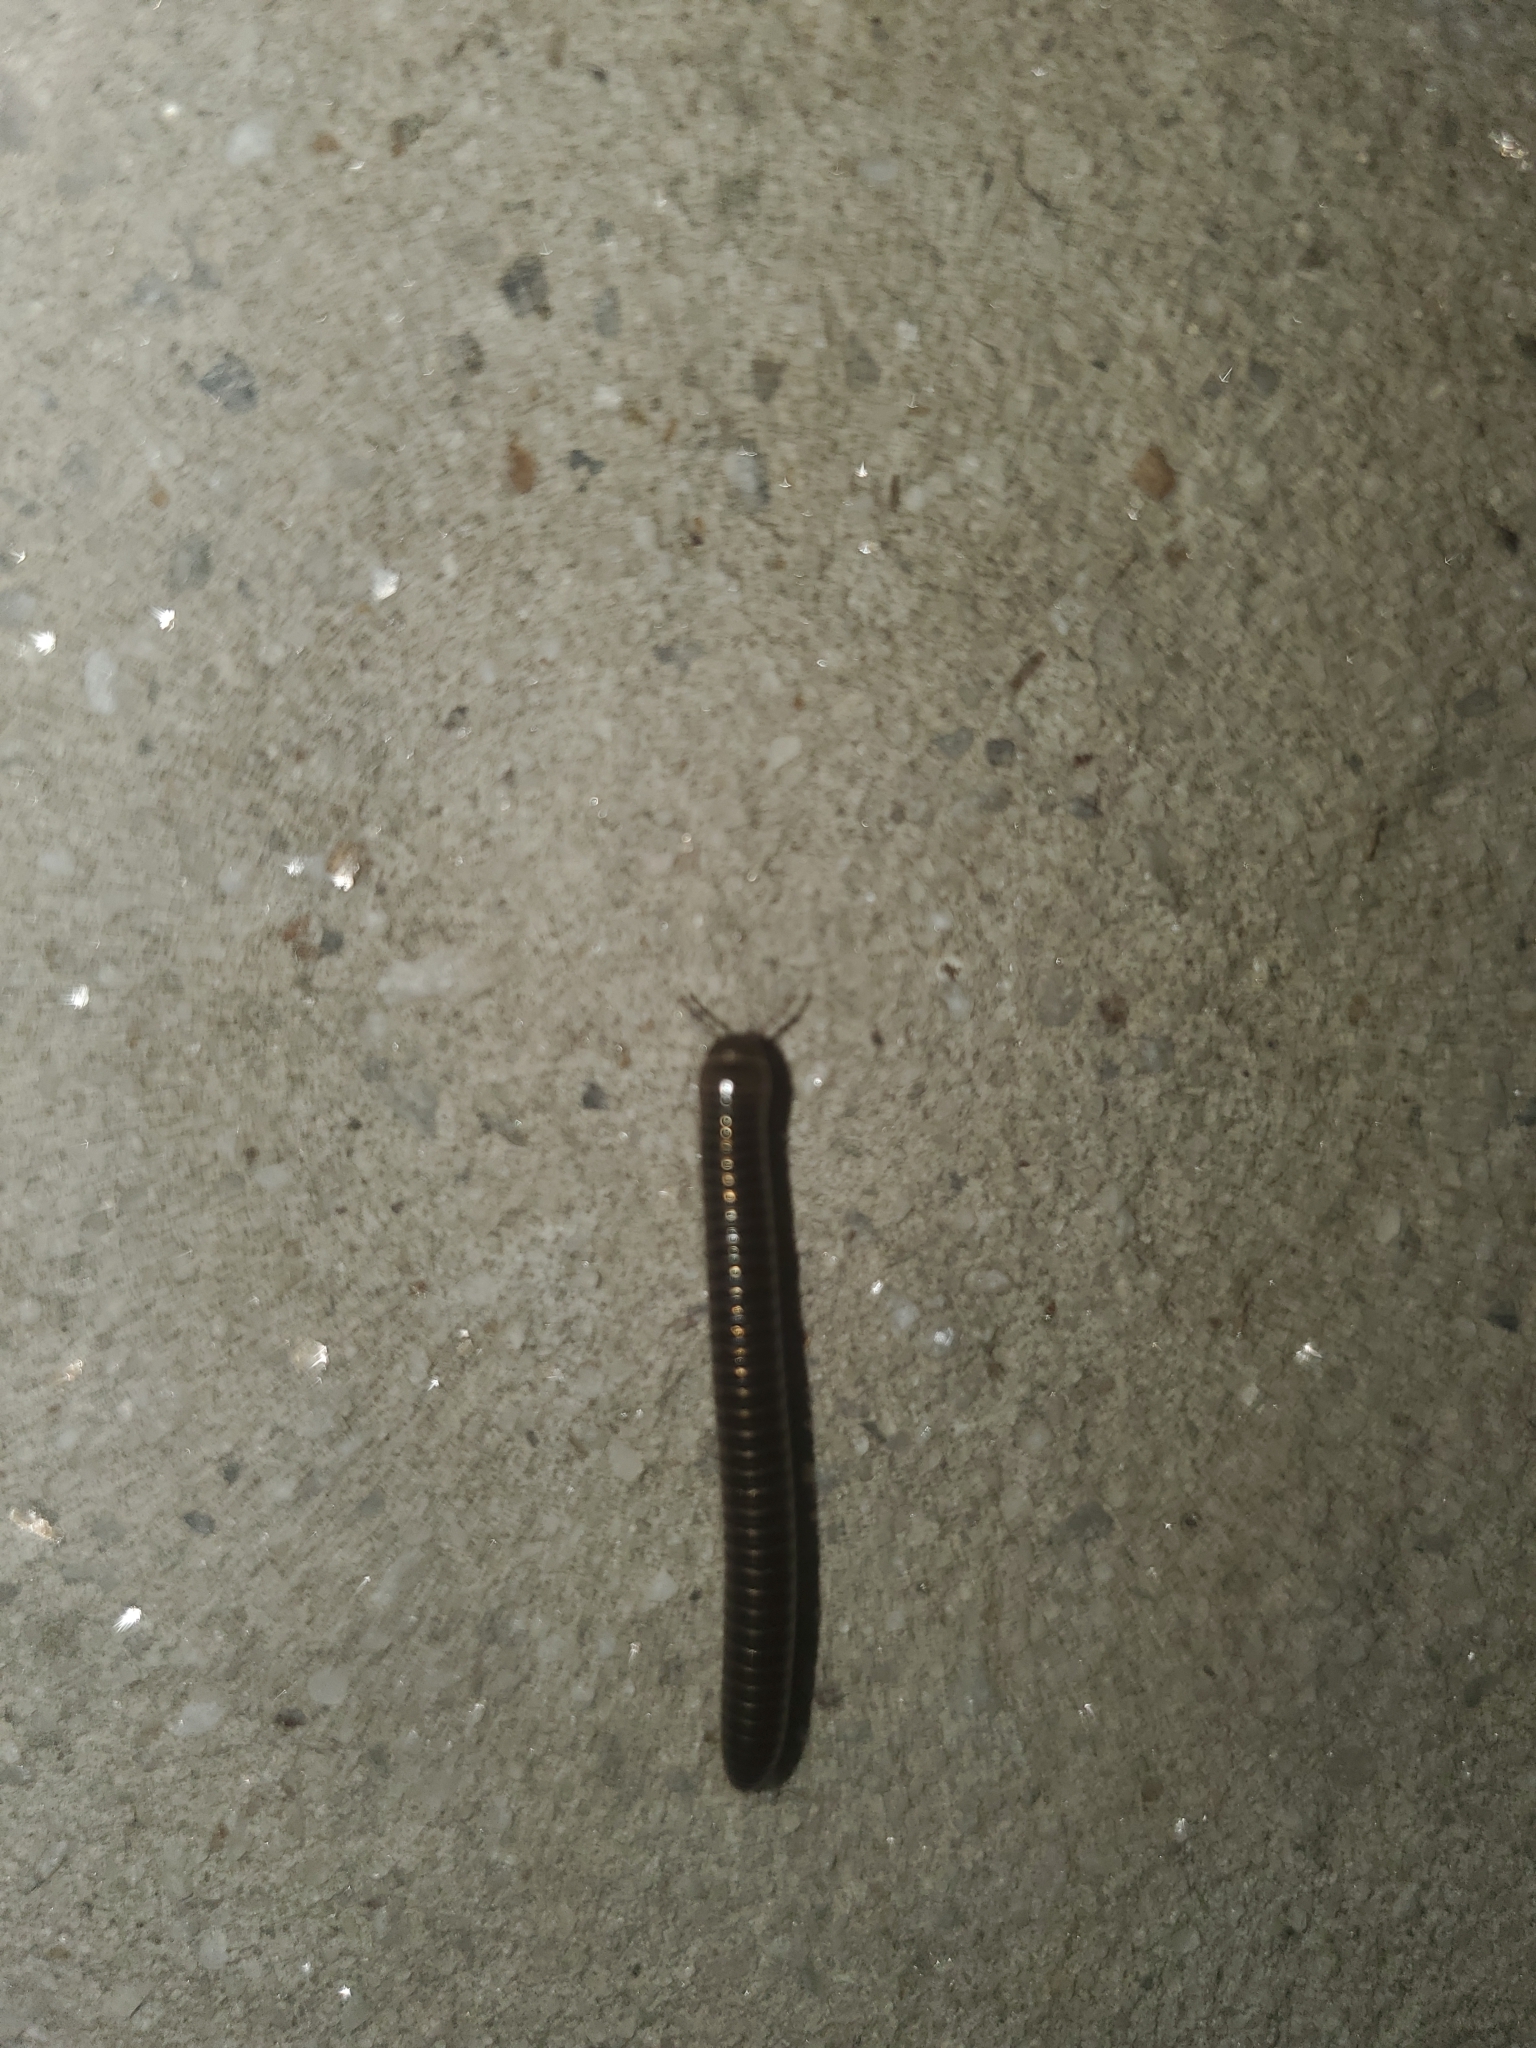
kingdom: Animalia
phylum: Arthropoda
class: Diplopoda
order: Julida
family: Julidae
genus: Cylindroiulus
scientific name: Cylindroiulus caeruleocinctus
